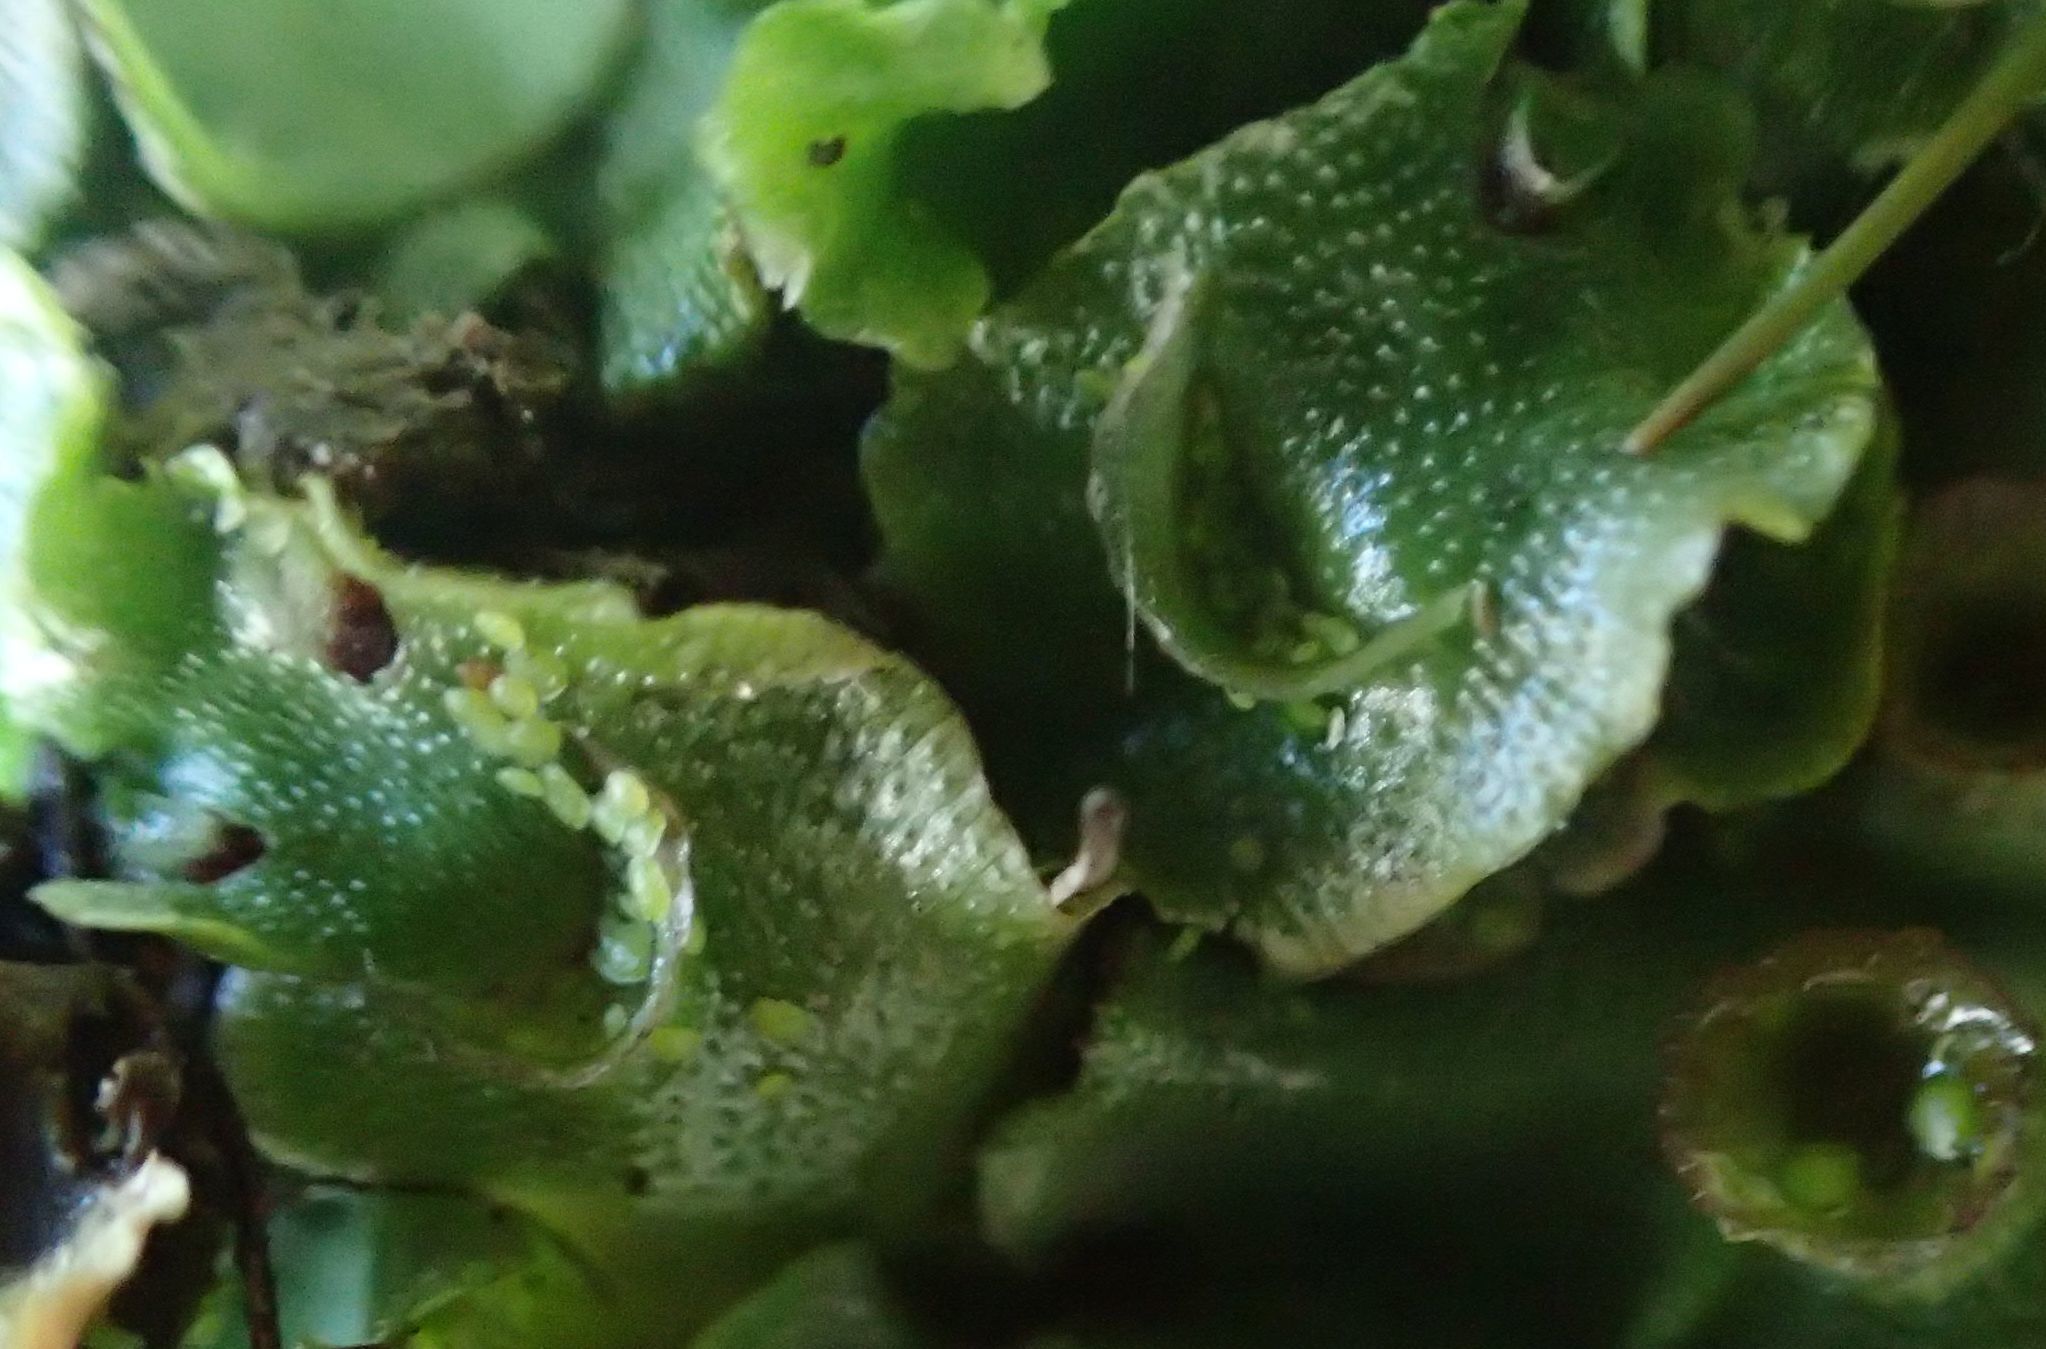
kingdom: Plantae
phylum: Marchantiophyta
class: Marchantiopsida
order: Lunulariales
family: Lunulariaceae
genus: Lunularia
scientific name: Lunularia cruciata
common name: Crescent-cup liverwort
